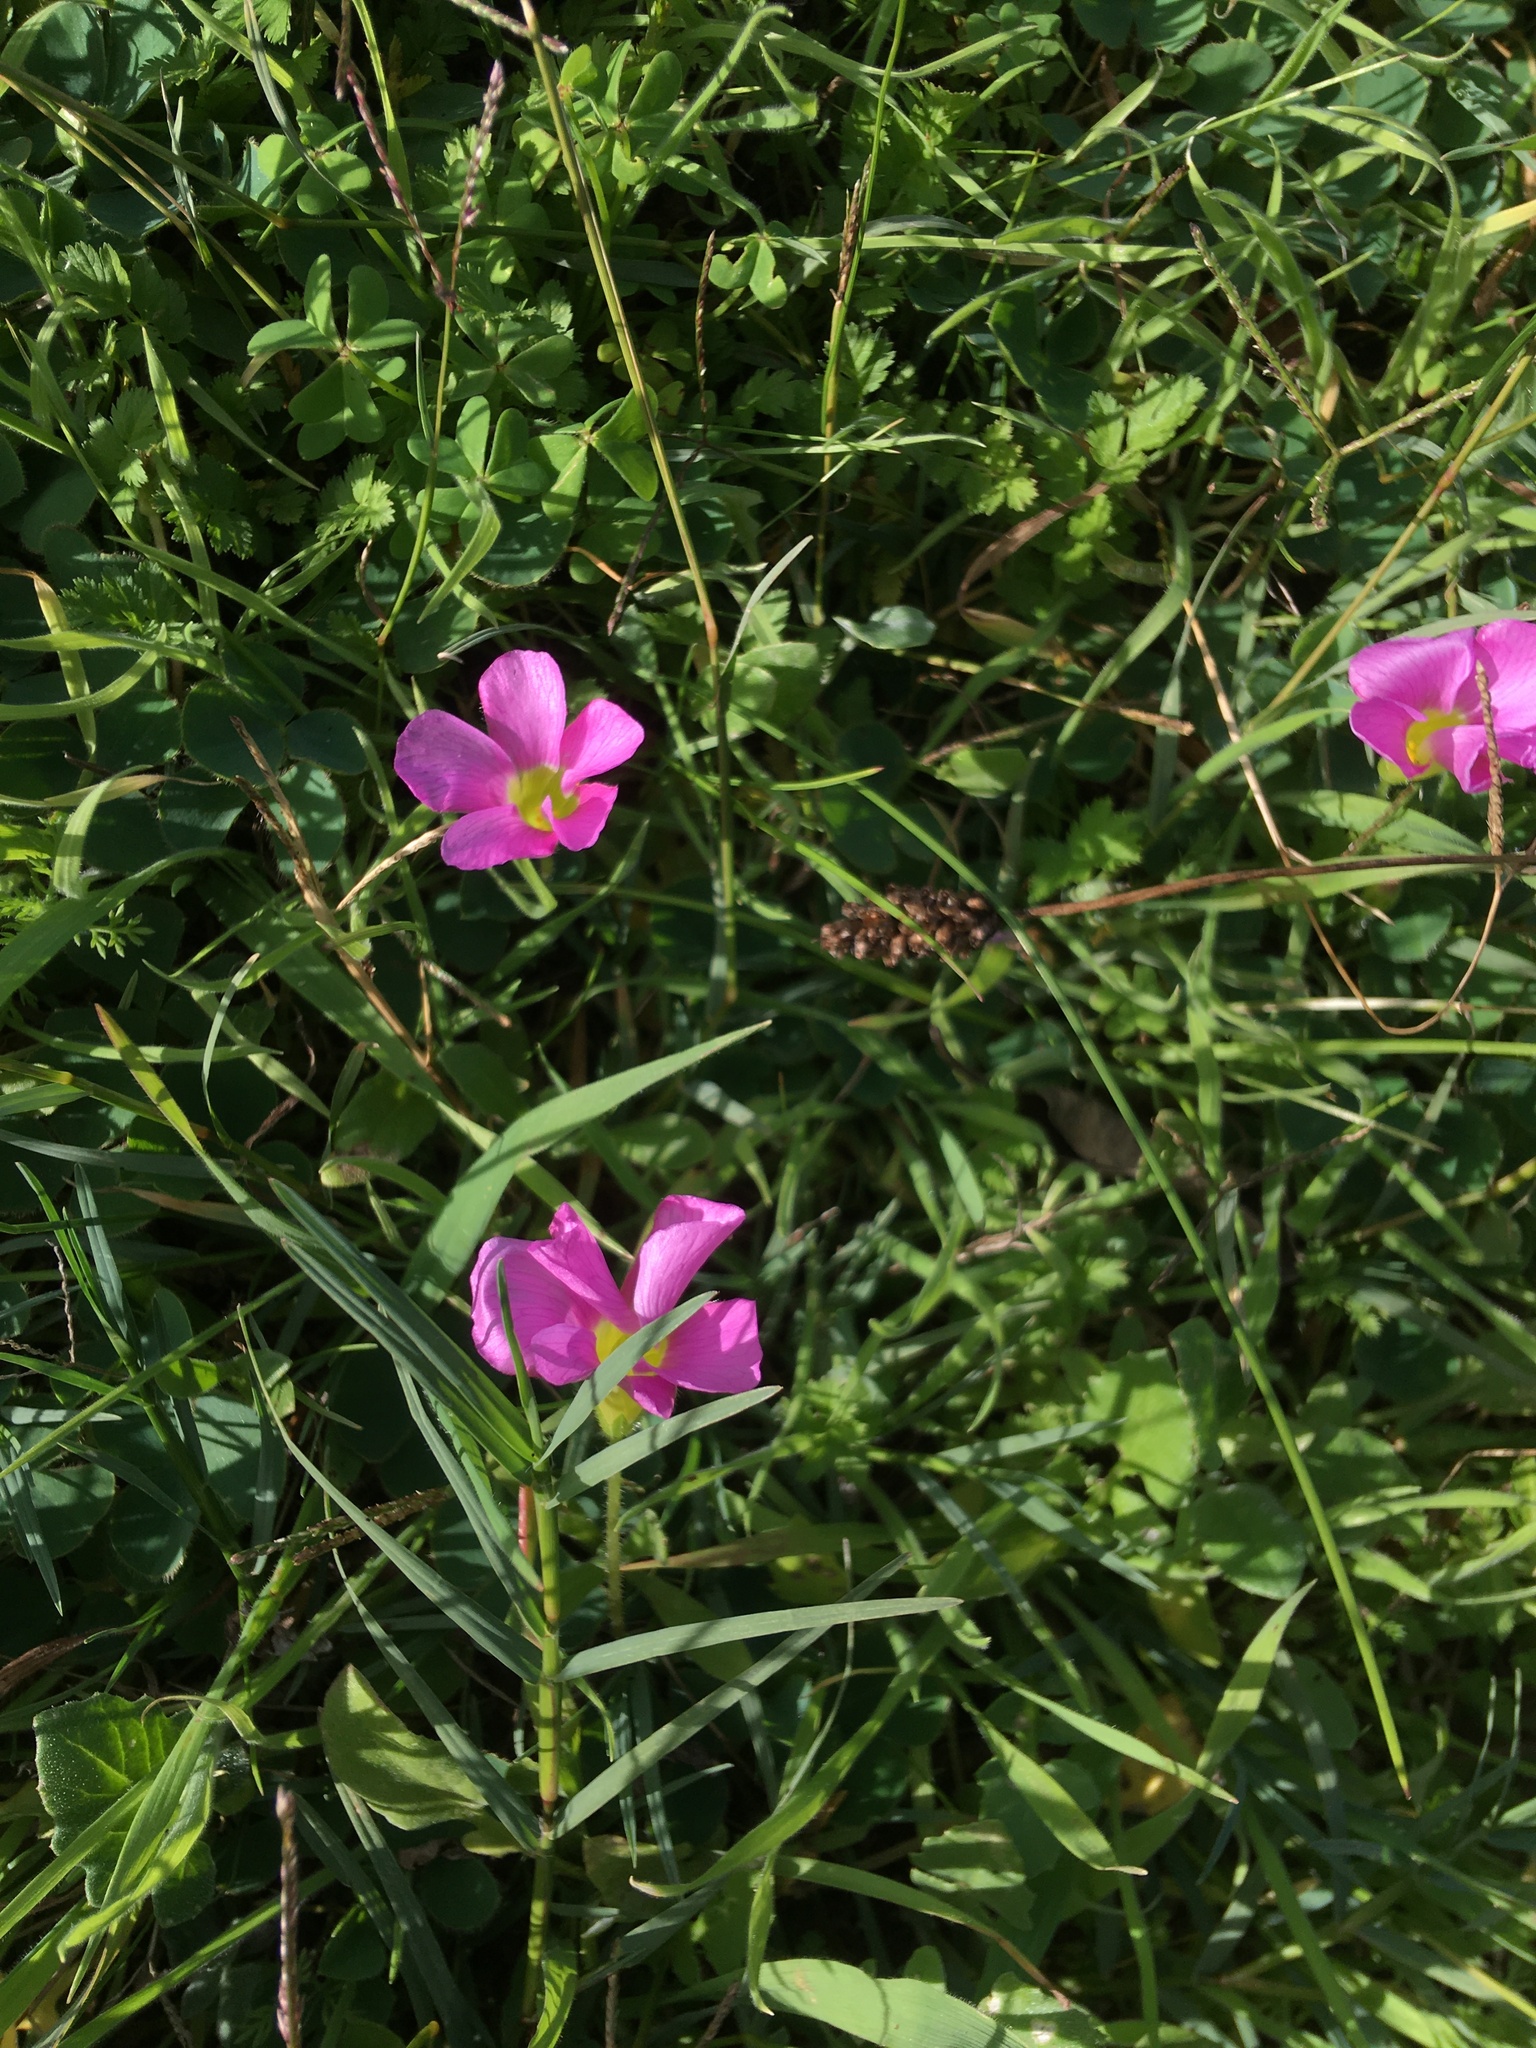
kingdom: Plantae
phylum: Tracheophyta
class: Magnoliopsida
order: Oxalidales
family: Oxalidaceae
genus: Oxalis
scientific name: Oxalis purpurea
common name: Purple woodsorrel
